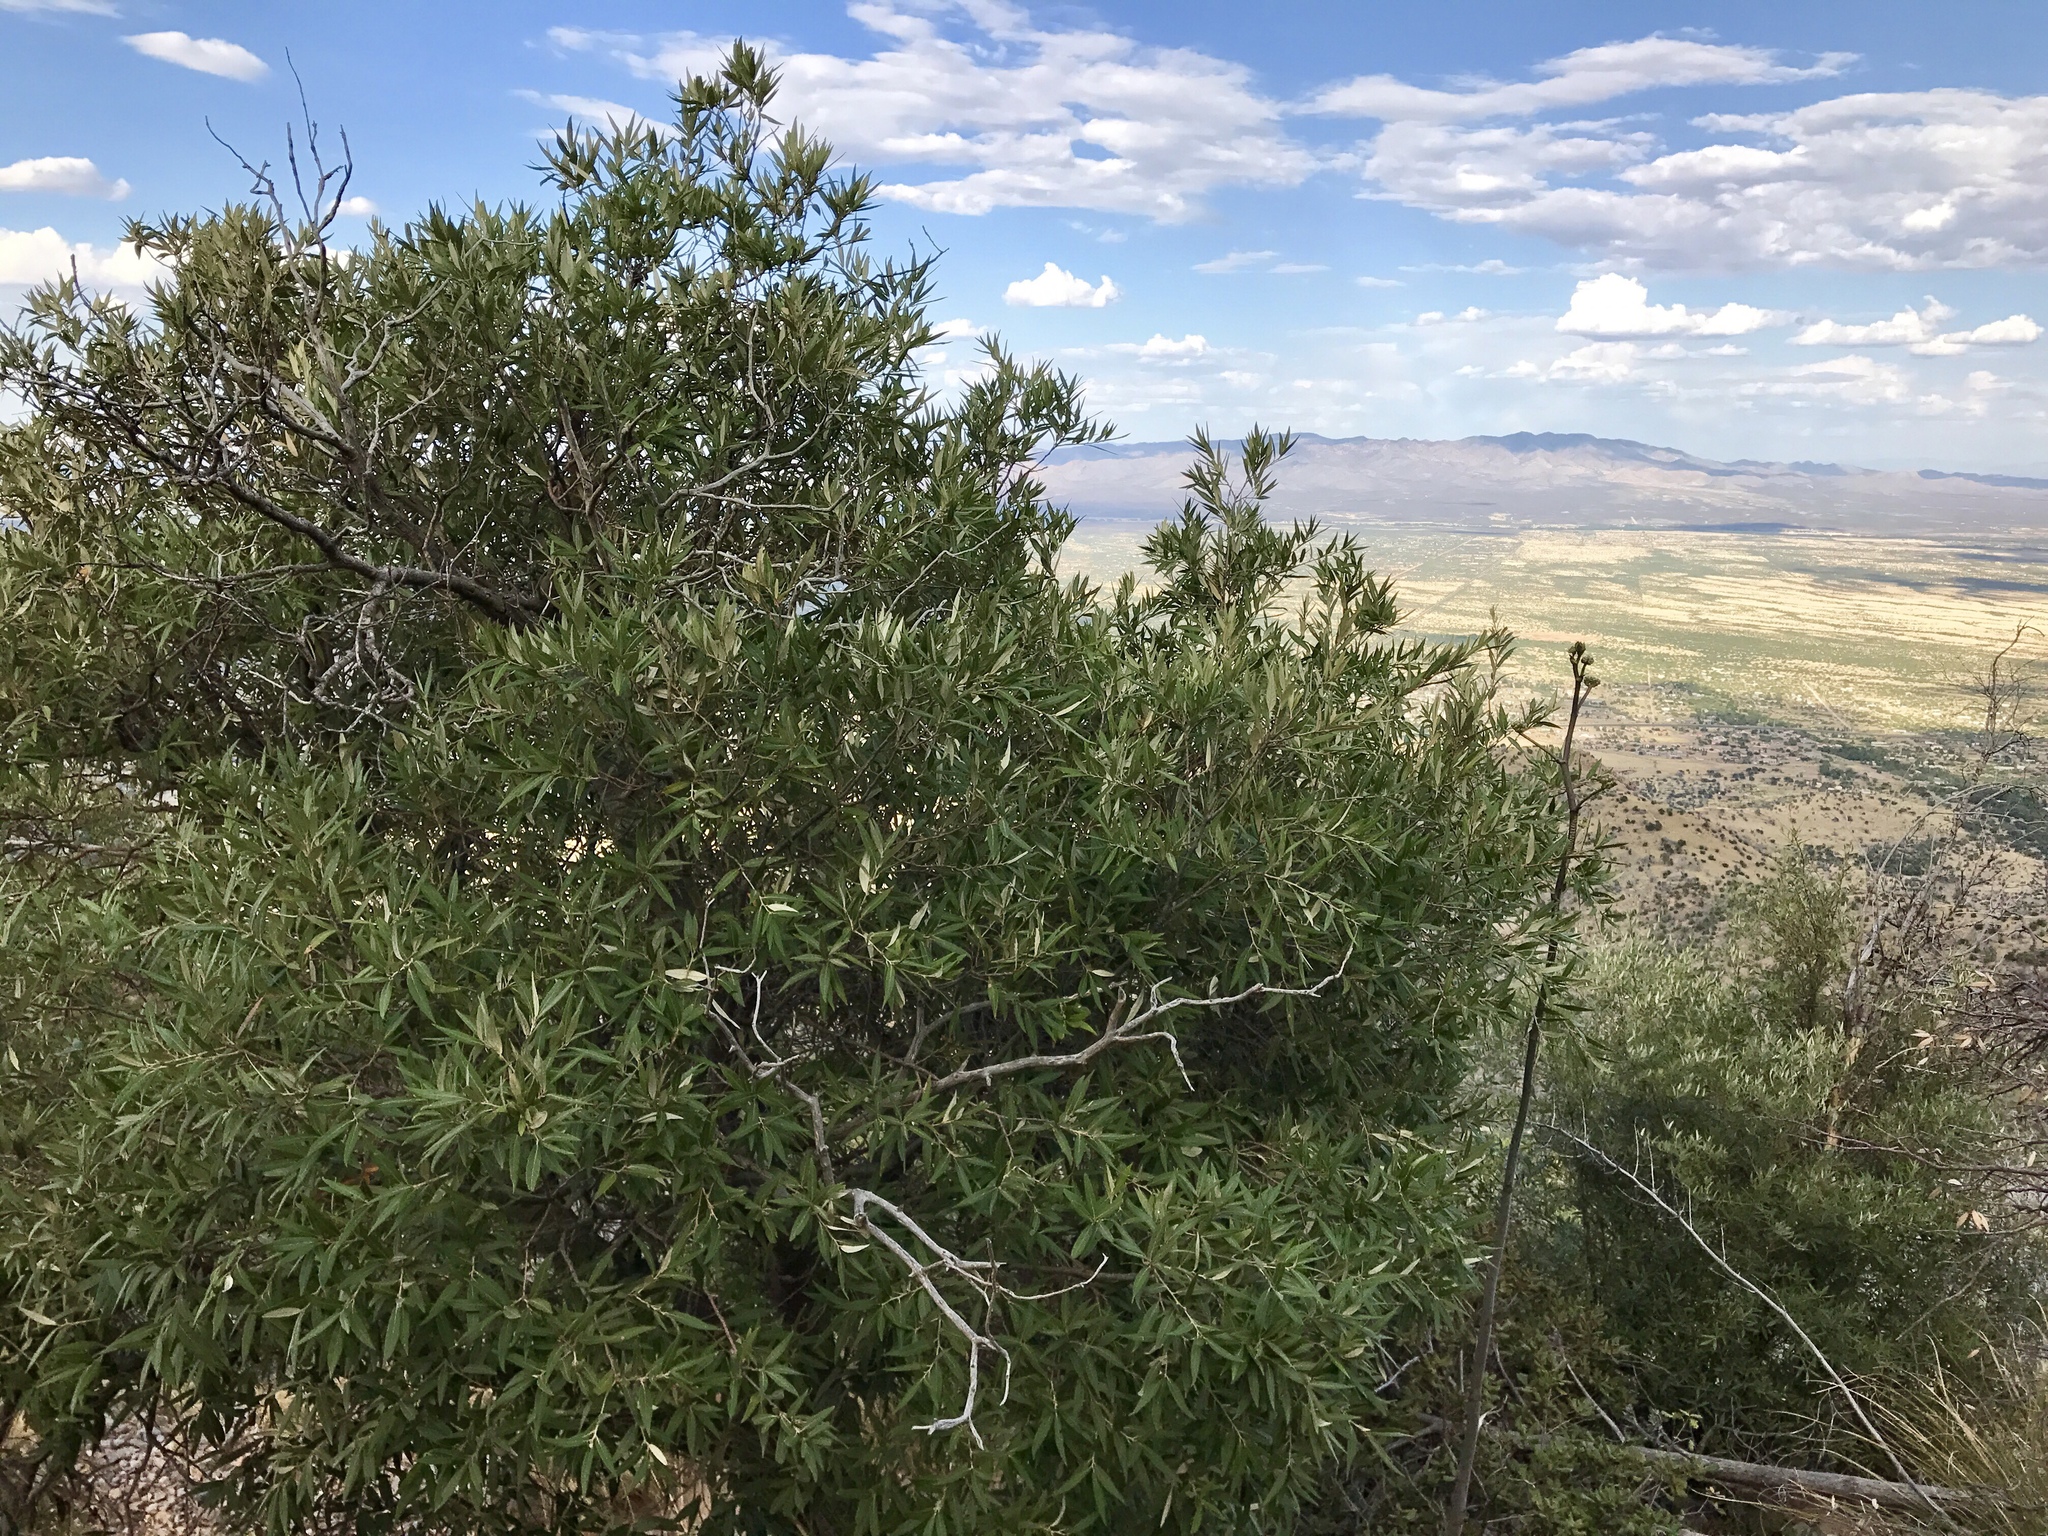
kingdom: Plantae
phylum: Tracheophyta
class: Magnoliopsida
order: Fagales
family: Fagaceae
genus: Quercus
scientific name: Quercus hypoleucoides
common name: Silverleaf oak
